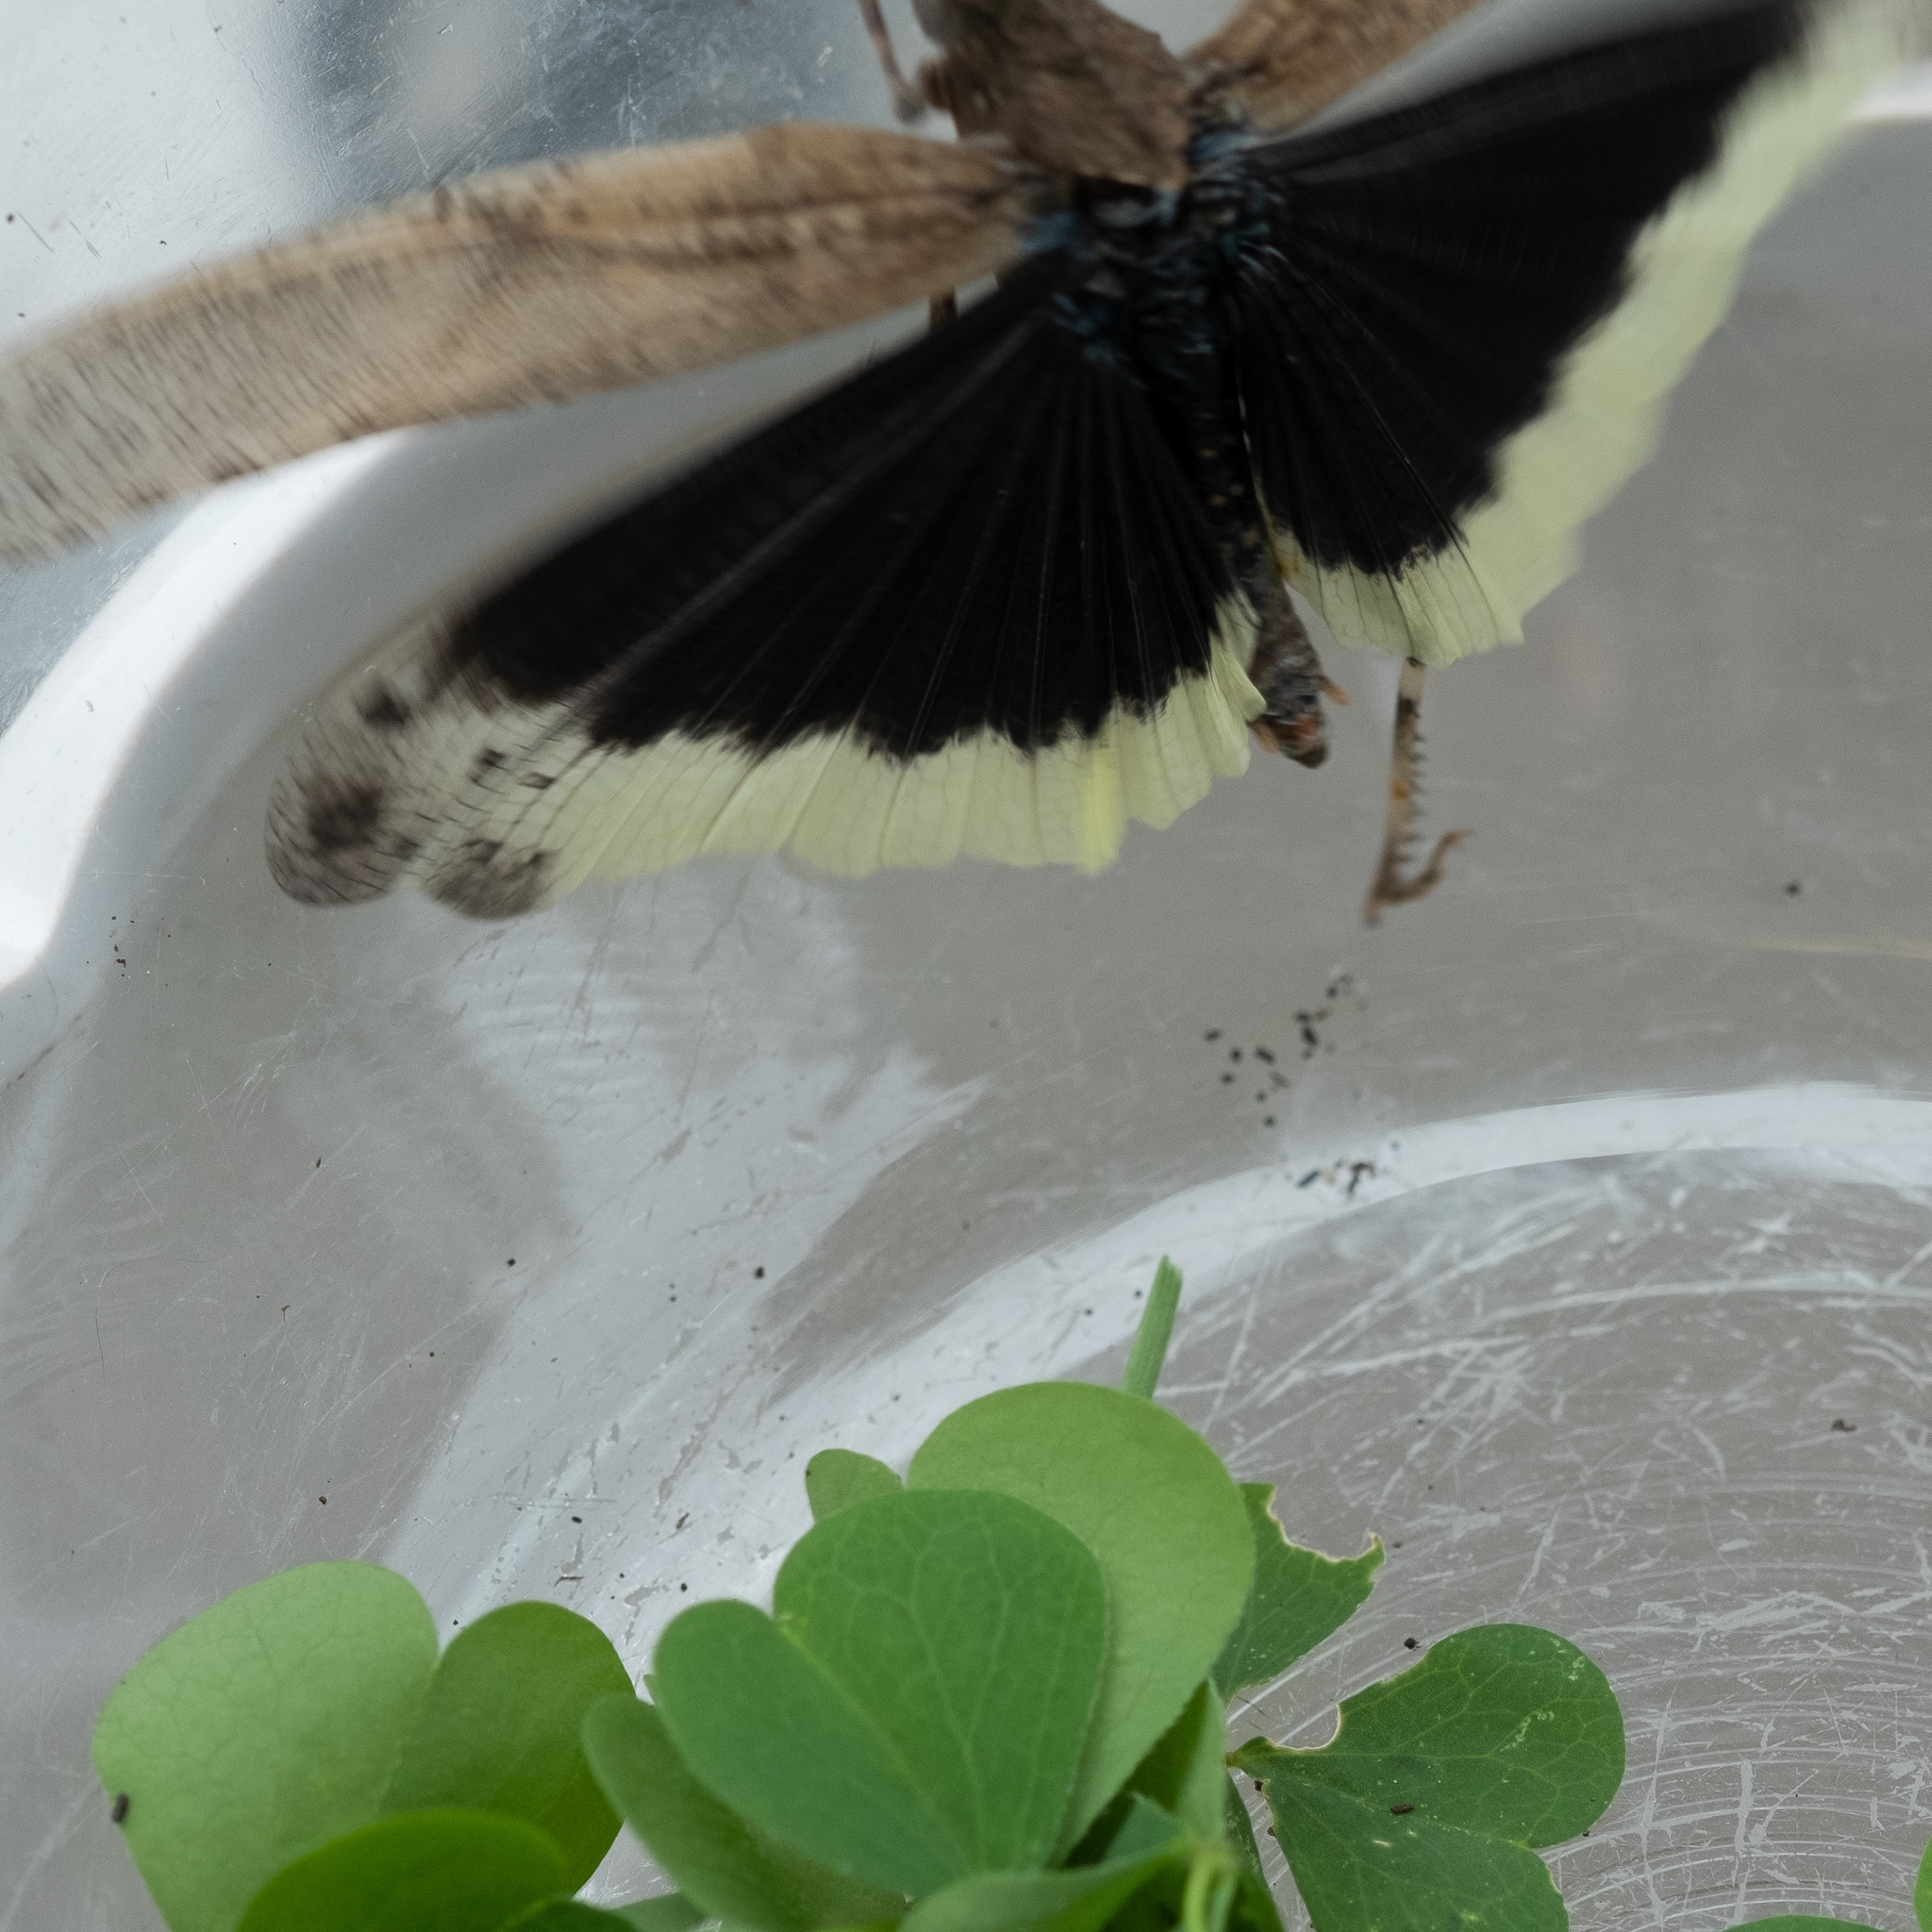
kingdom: Animalia
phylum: Arthropoda
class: Insecta
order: Orthoptera
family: Acrididae
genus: Dissosteira
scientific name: Dissosteira carolina
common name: Carolina grasshopper
